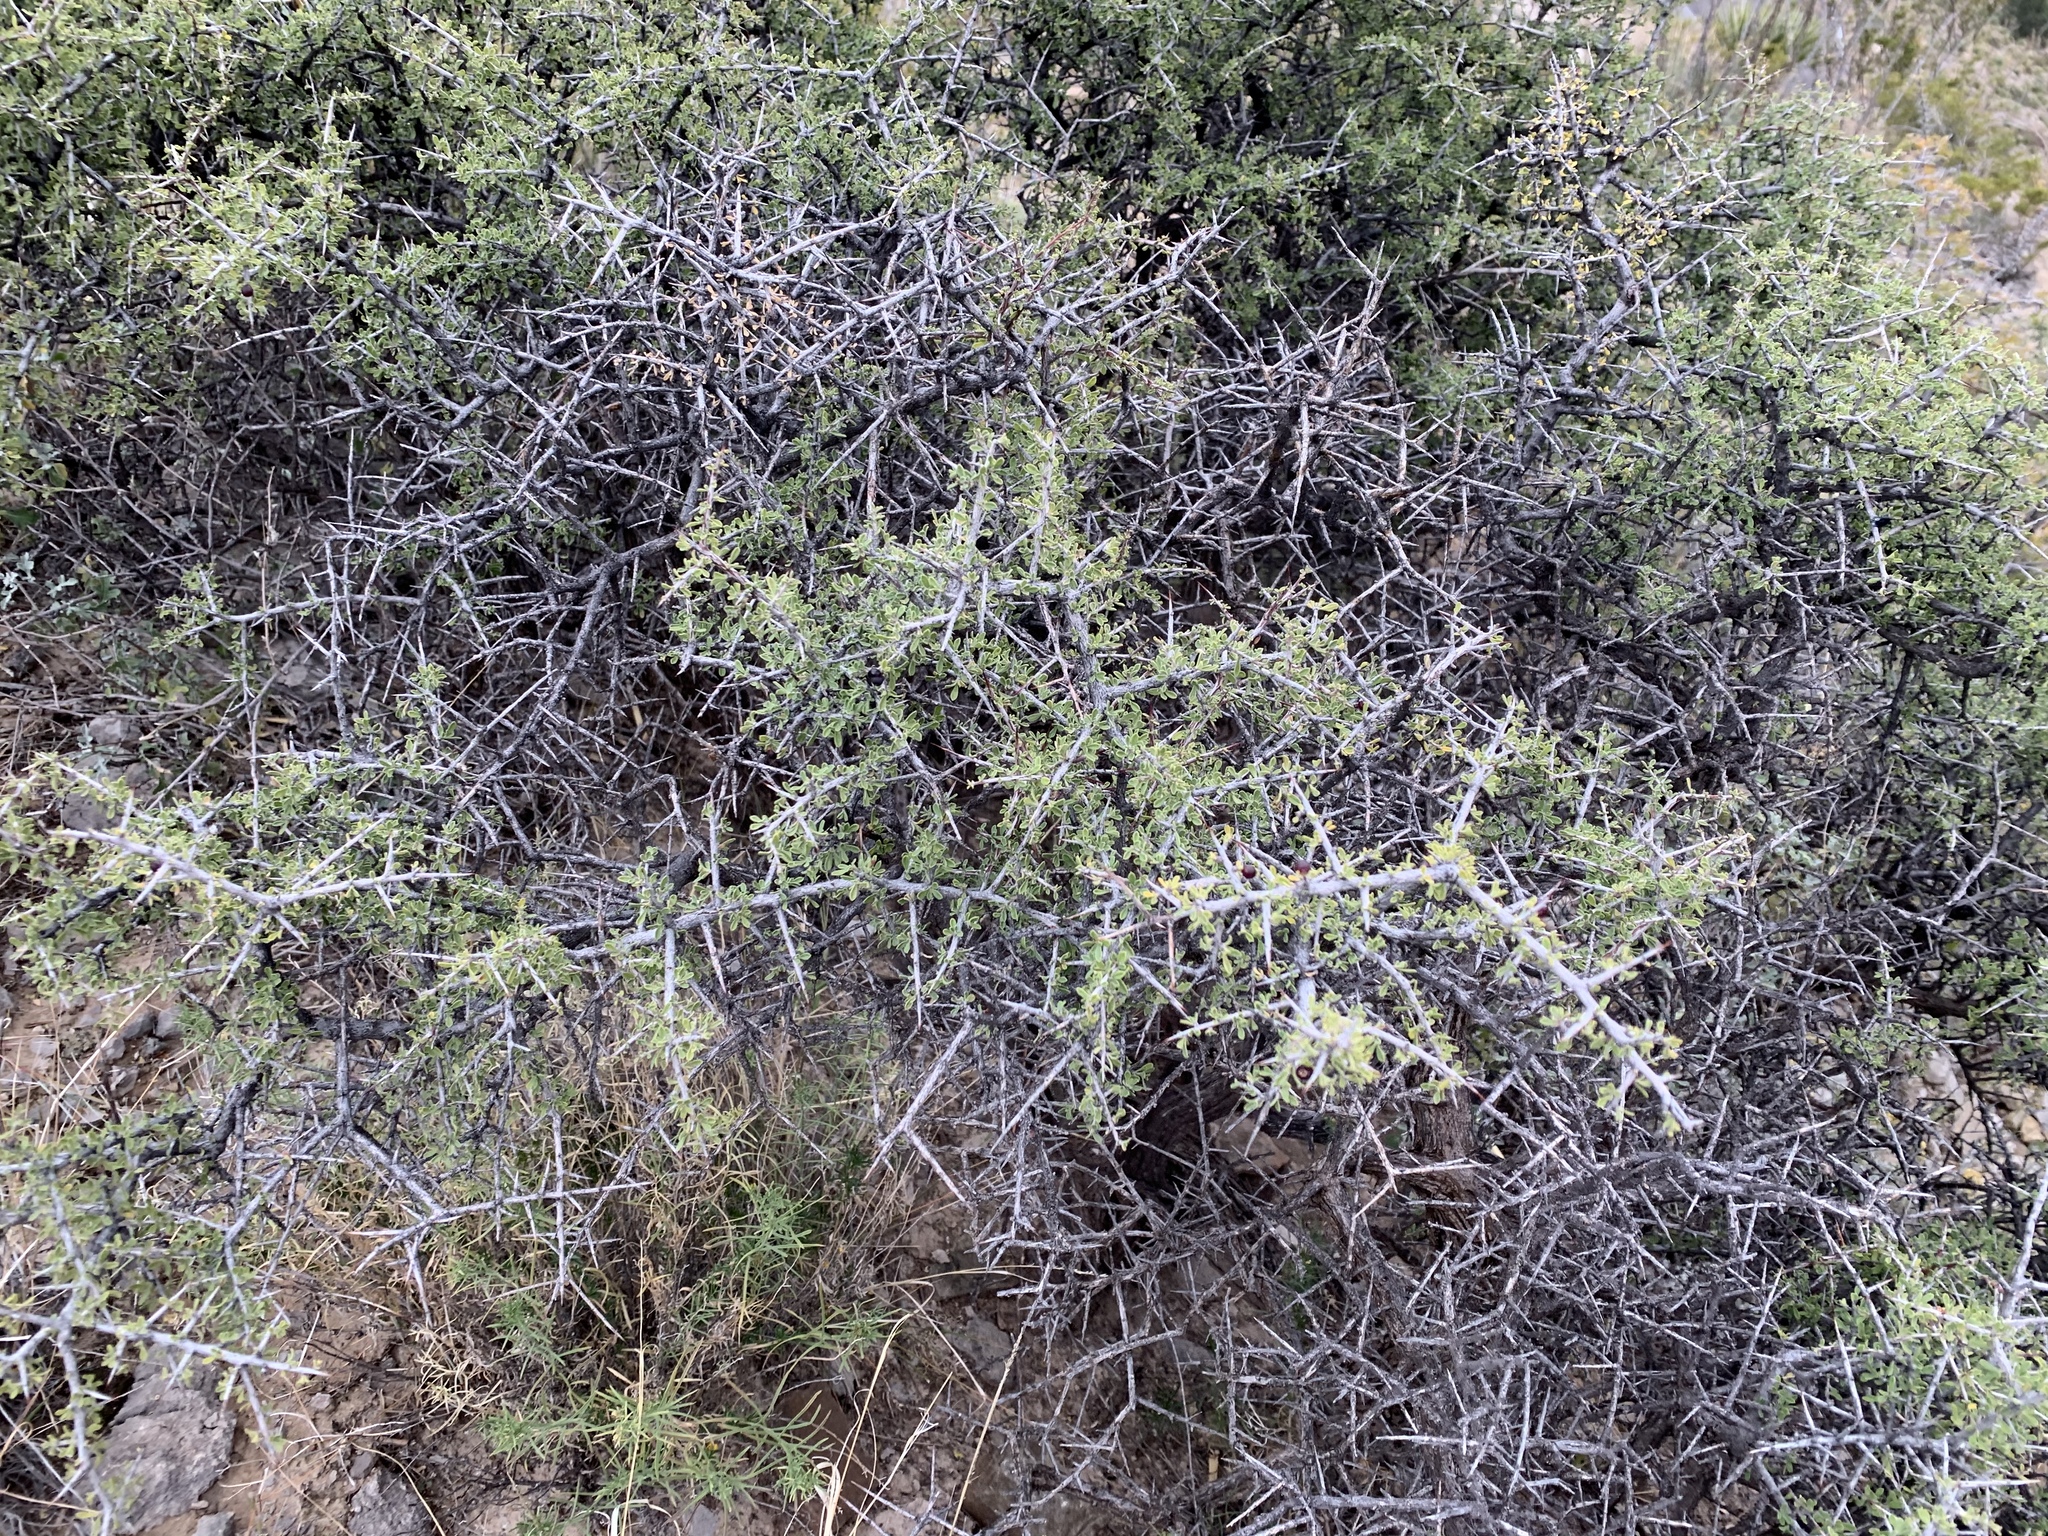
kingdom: Plantae
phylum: Tracheophyta
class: Magnoliopsida
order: Rosales
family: Rhamnaceae
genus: Condalia
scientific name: Condalia warnockii
